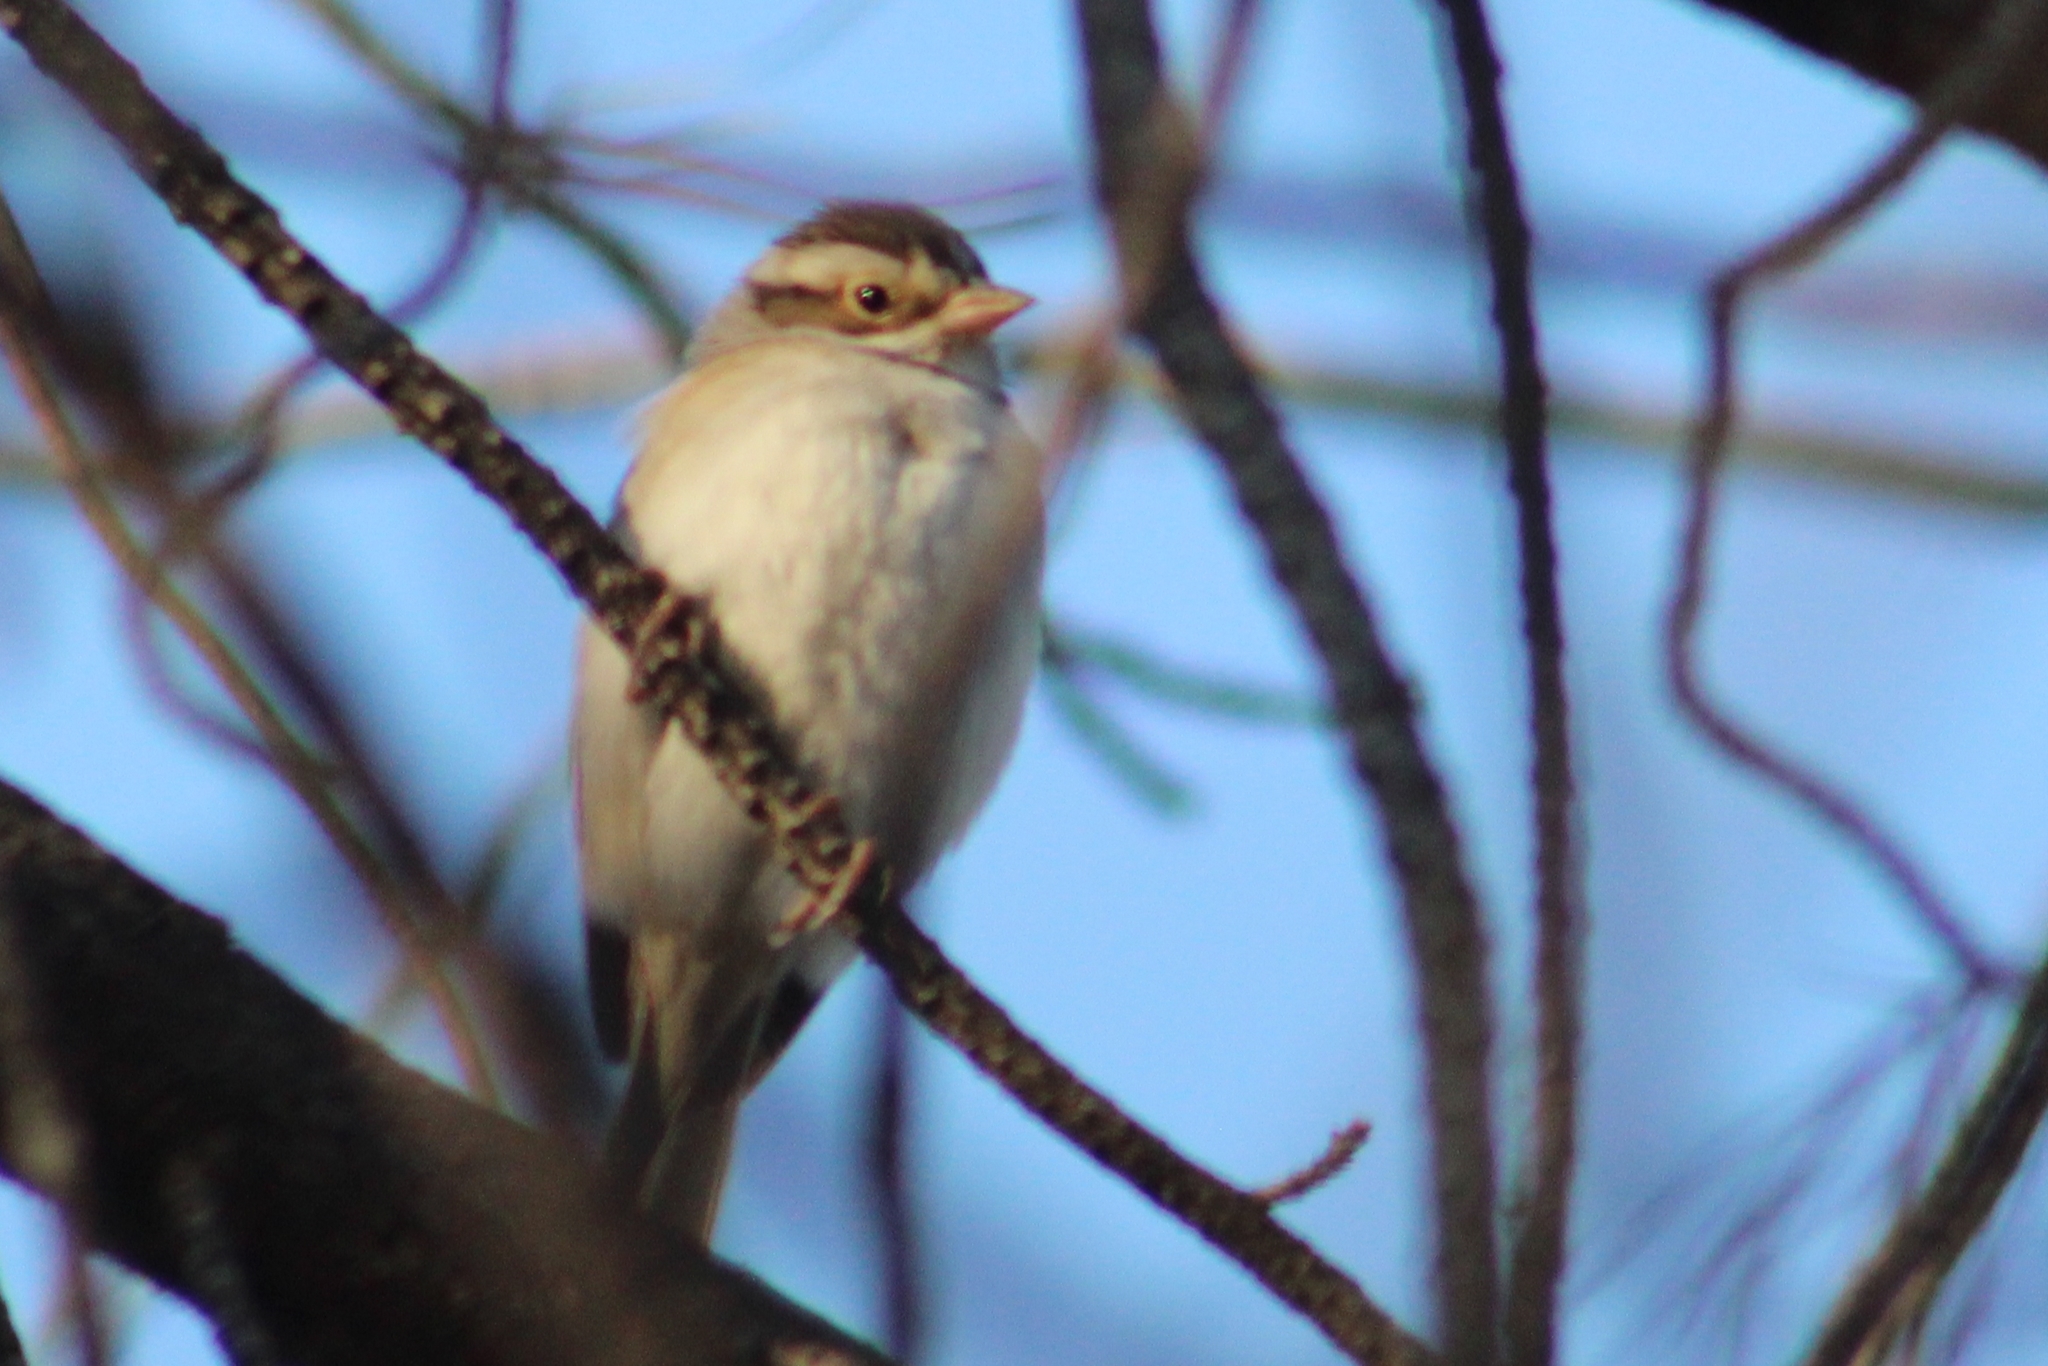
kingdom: Animalia
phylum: Chordata
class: Aves
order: Passeriformes
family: Passerellidae
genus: Spizella
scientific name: Spizella pallida
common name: Clay-colored sparrow
